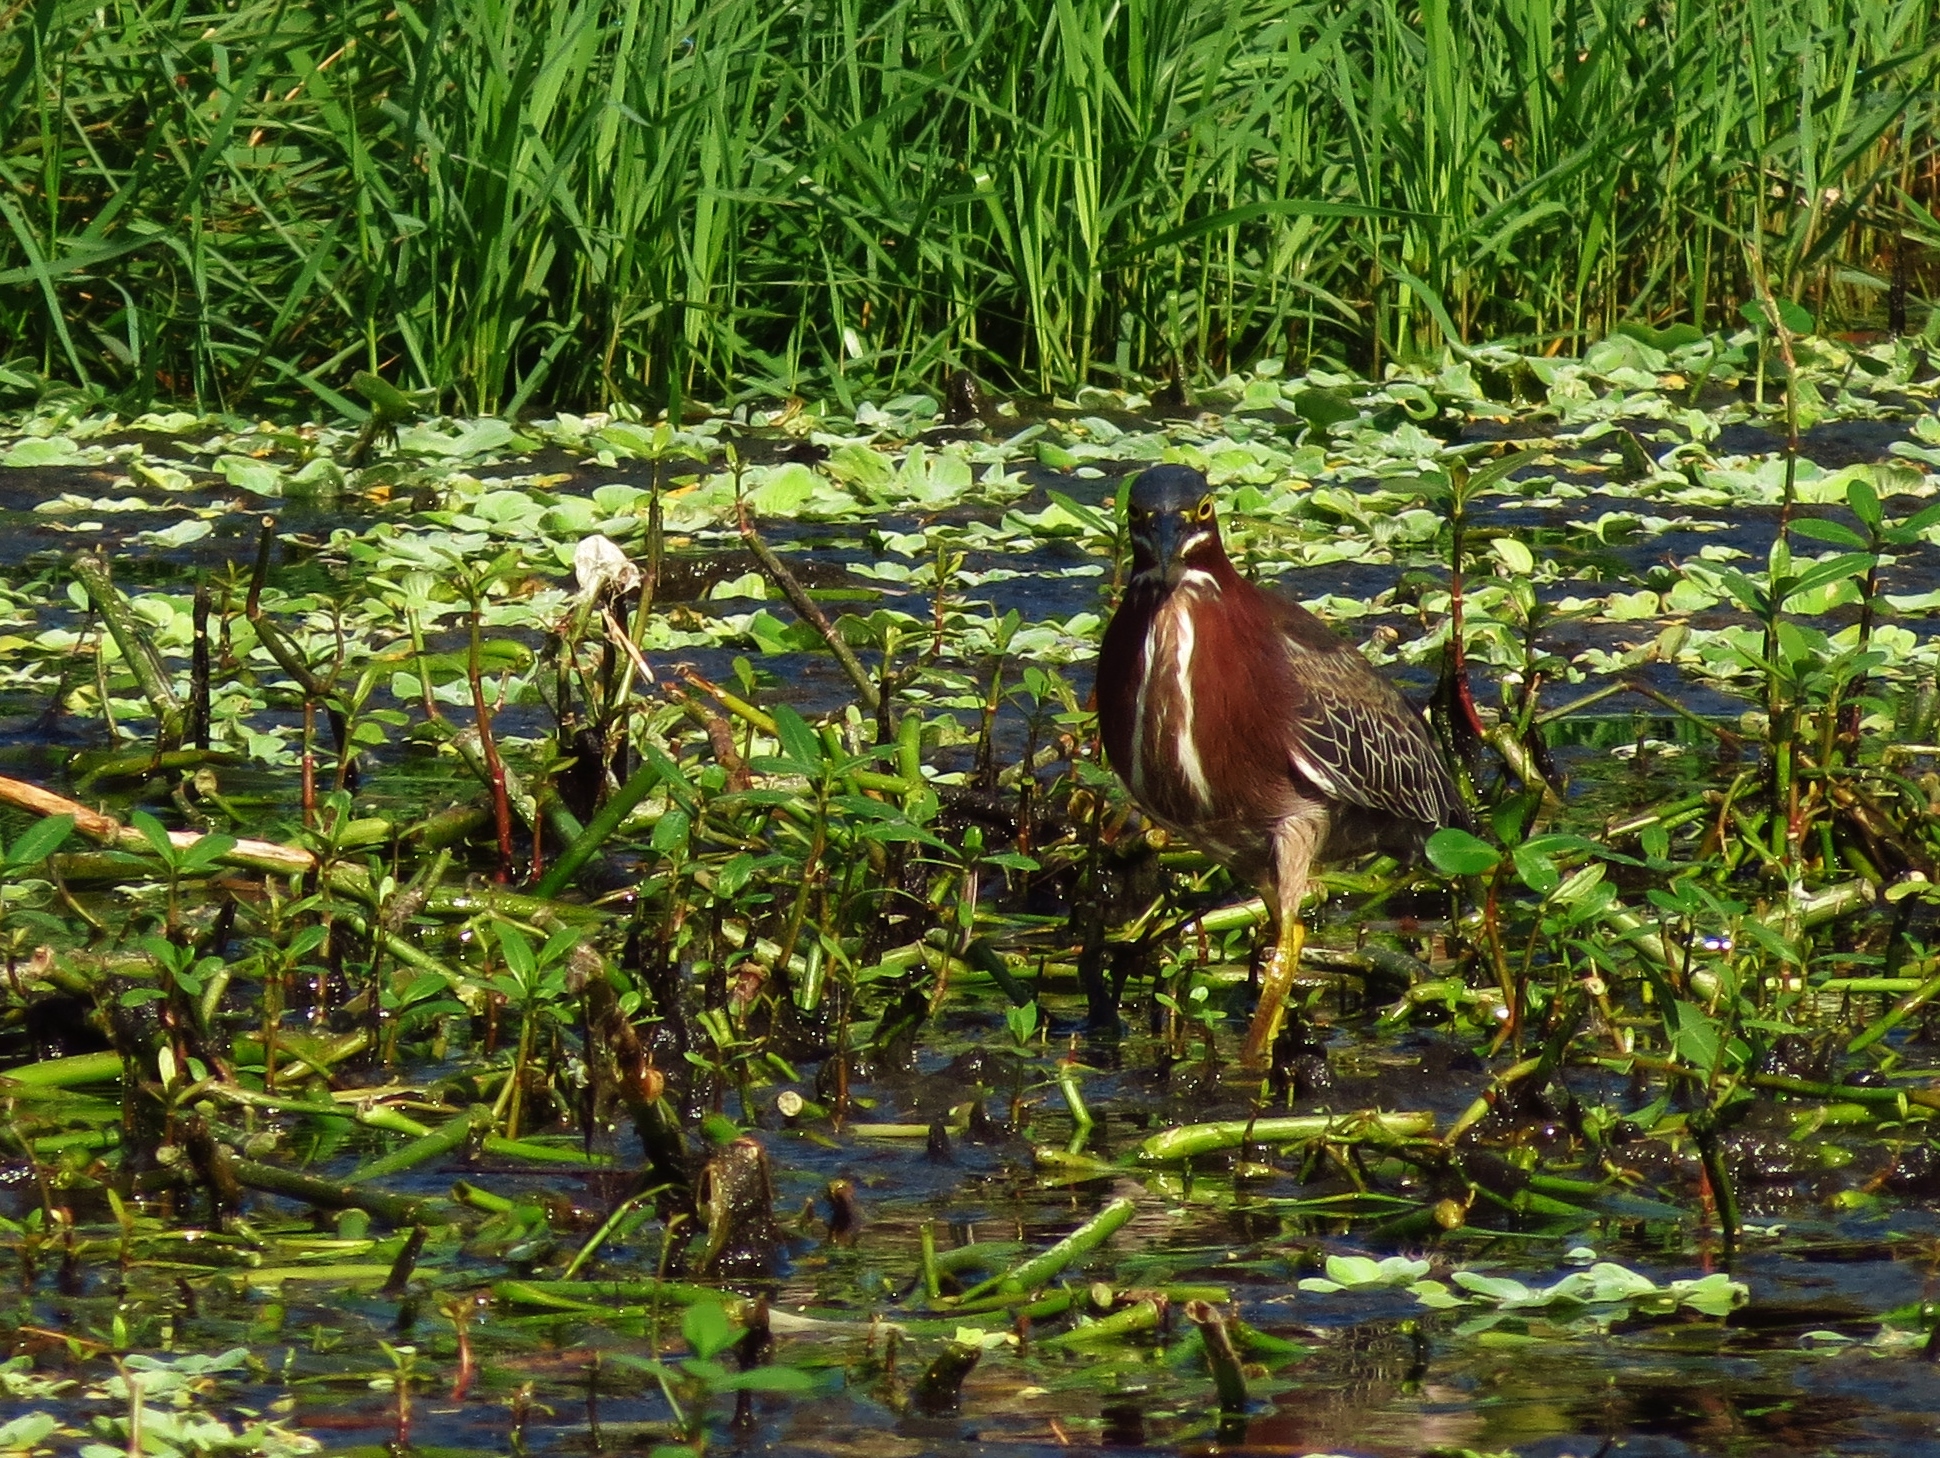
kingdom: Animalia
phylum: Chordata
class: Aves
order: Pelecaniformes
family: Ardeidae
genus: Butorides
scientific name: Butorides virescens
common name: Green heron
